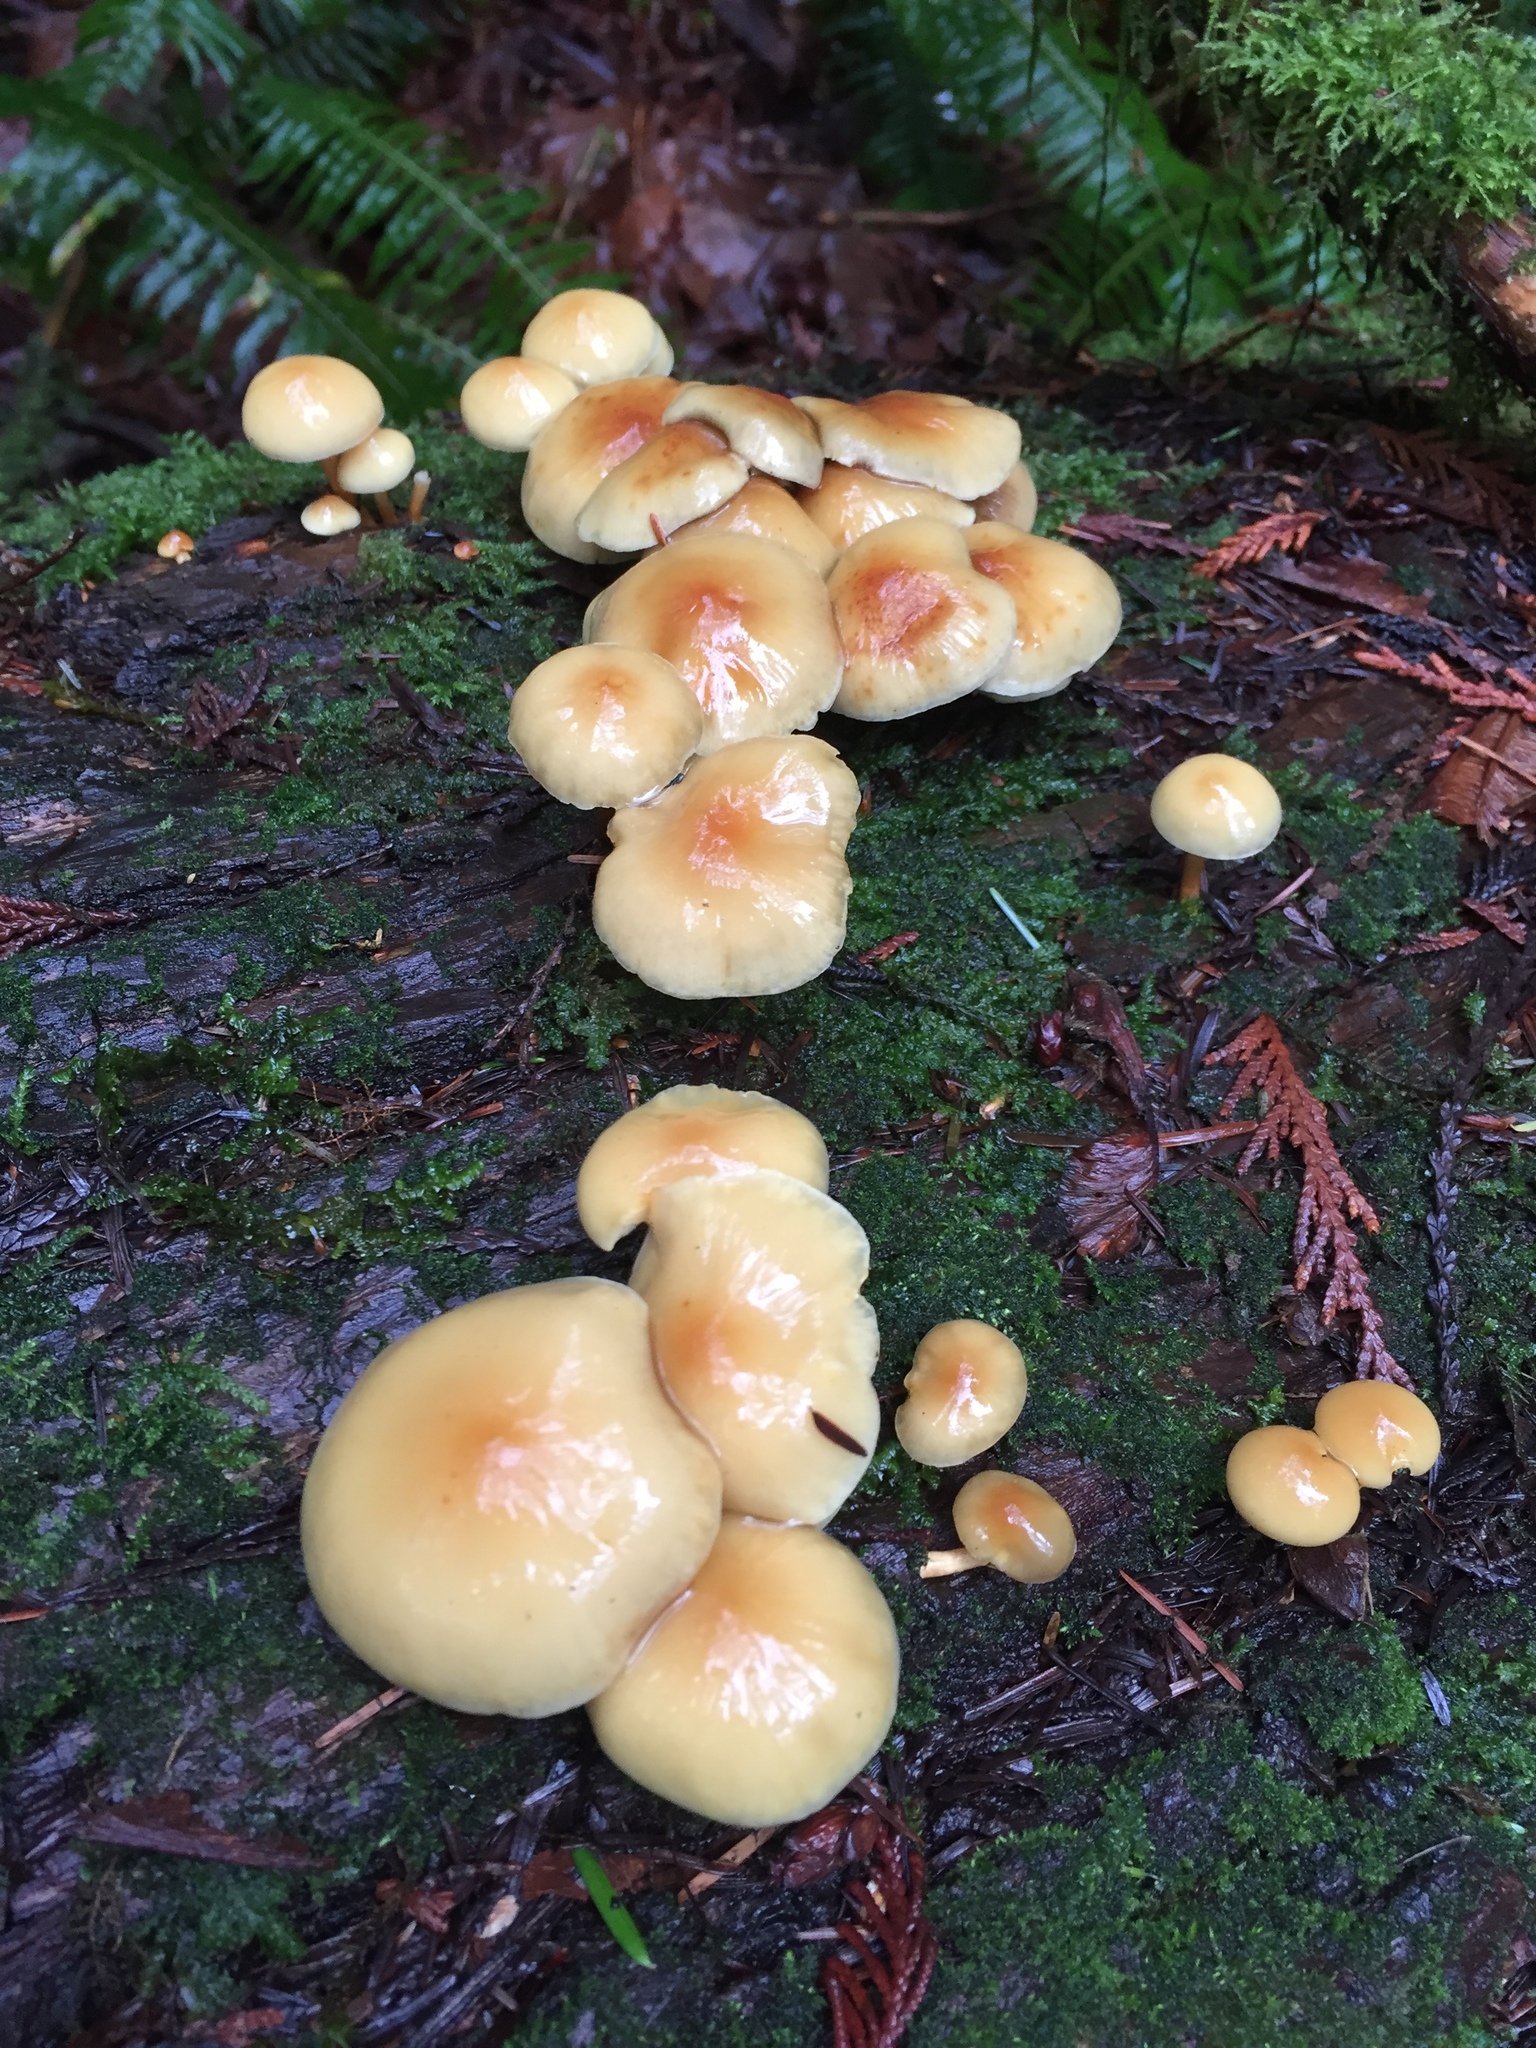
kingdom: Fungi
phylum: Basidiomycota
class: Agaricomycetes
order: Agaricales
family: Strophariaceae
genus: Hypholoma
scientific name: Hypholoma capnoides
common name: Conifer tuft
